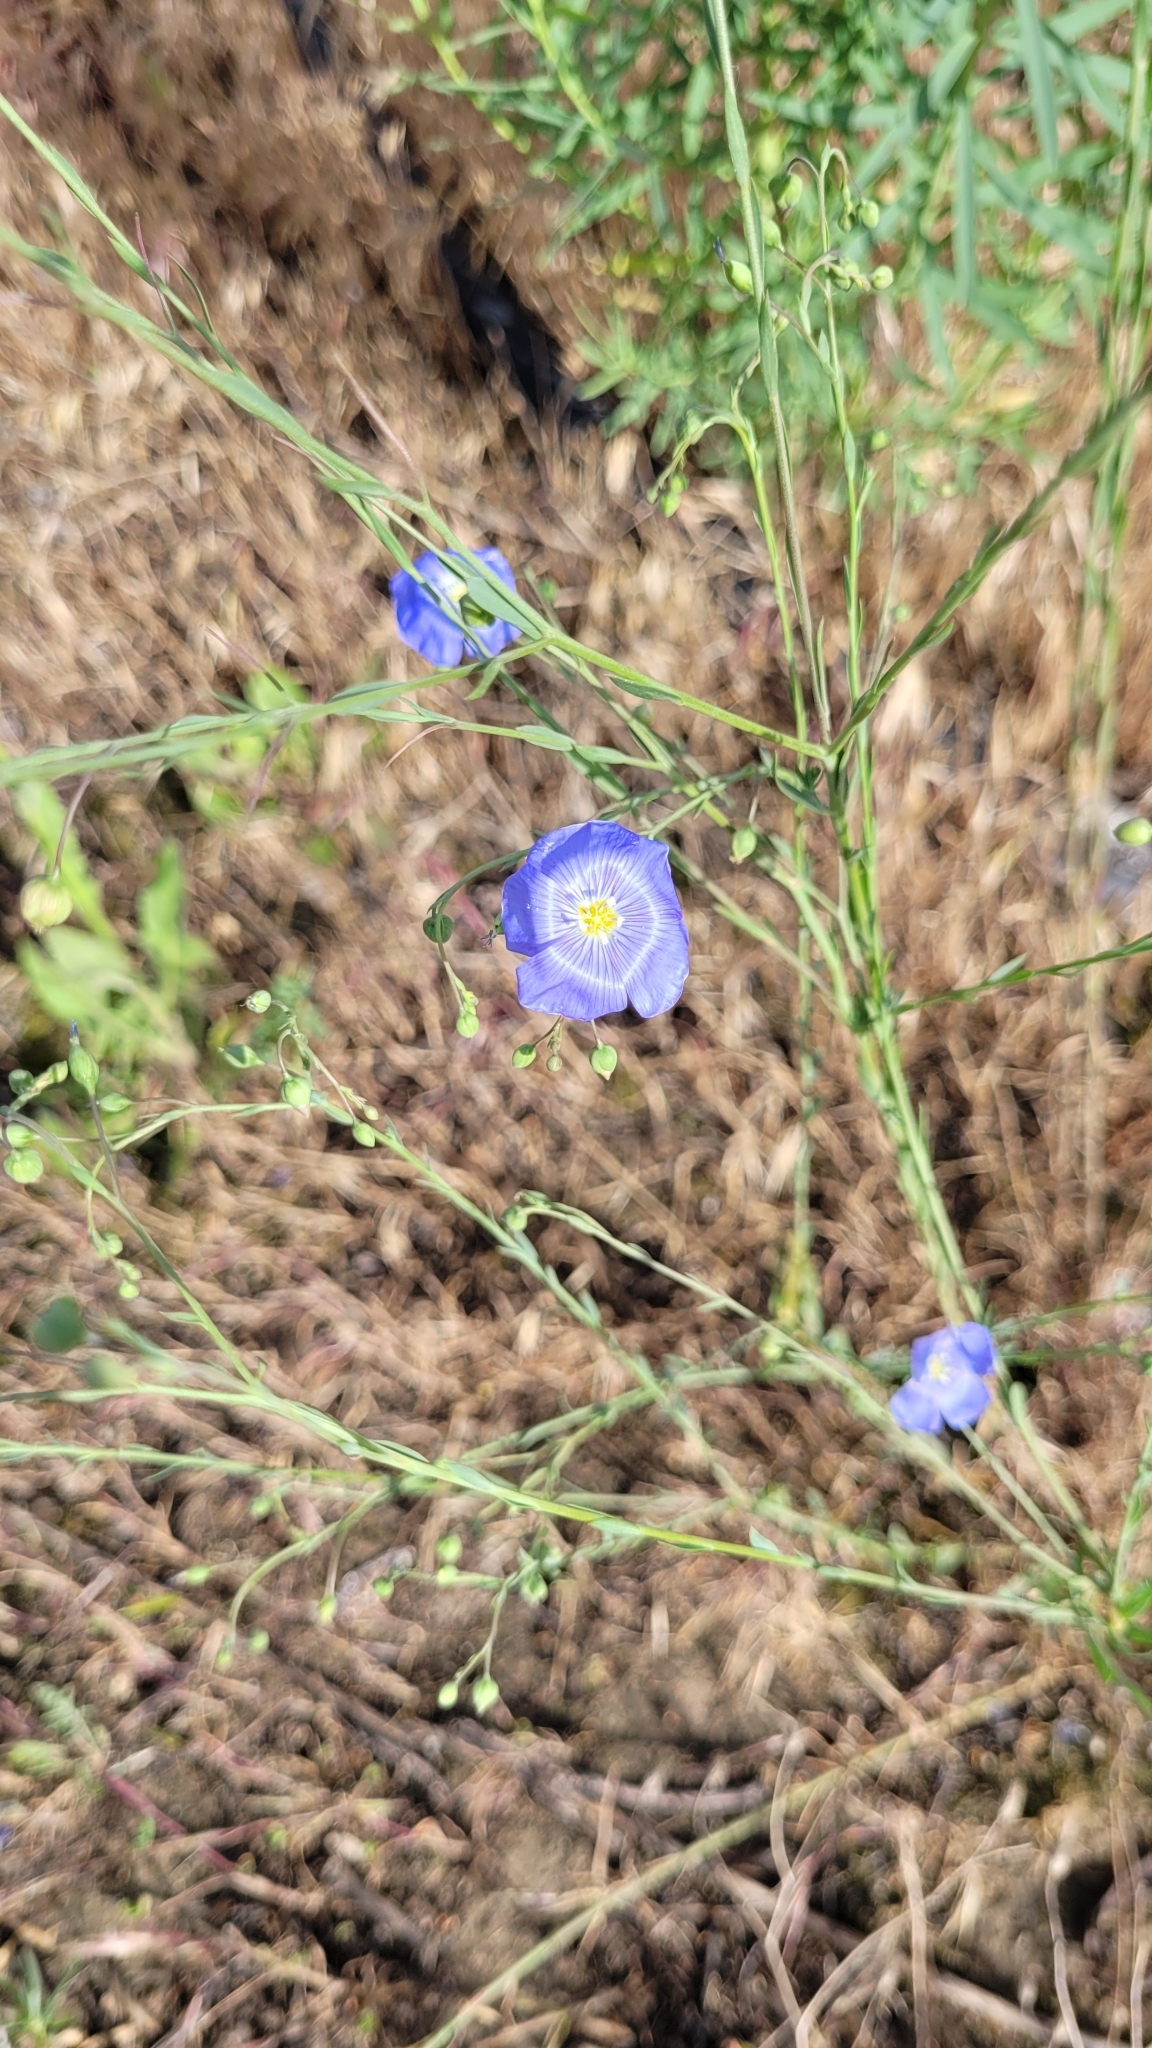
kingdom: Plantae
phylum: Tracheophyta
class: Magnoliopsida
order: Malpighiales
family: Linaceae
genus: Linum
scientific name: Linum pallescens
